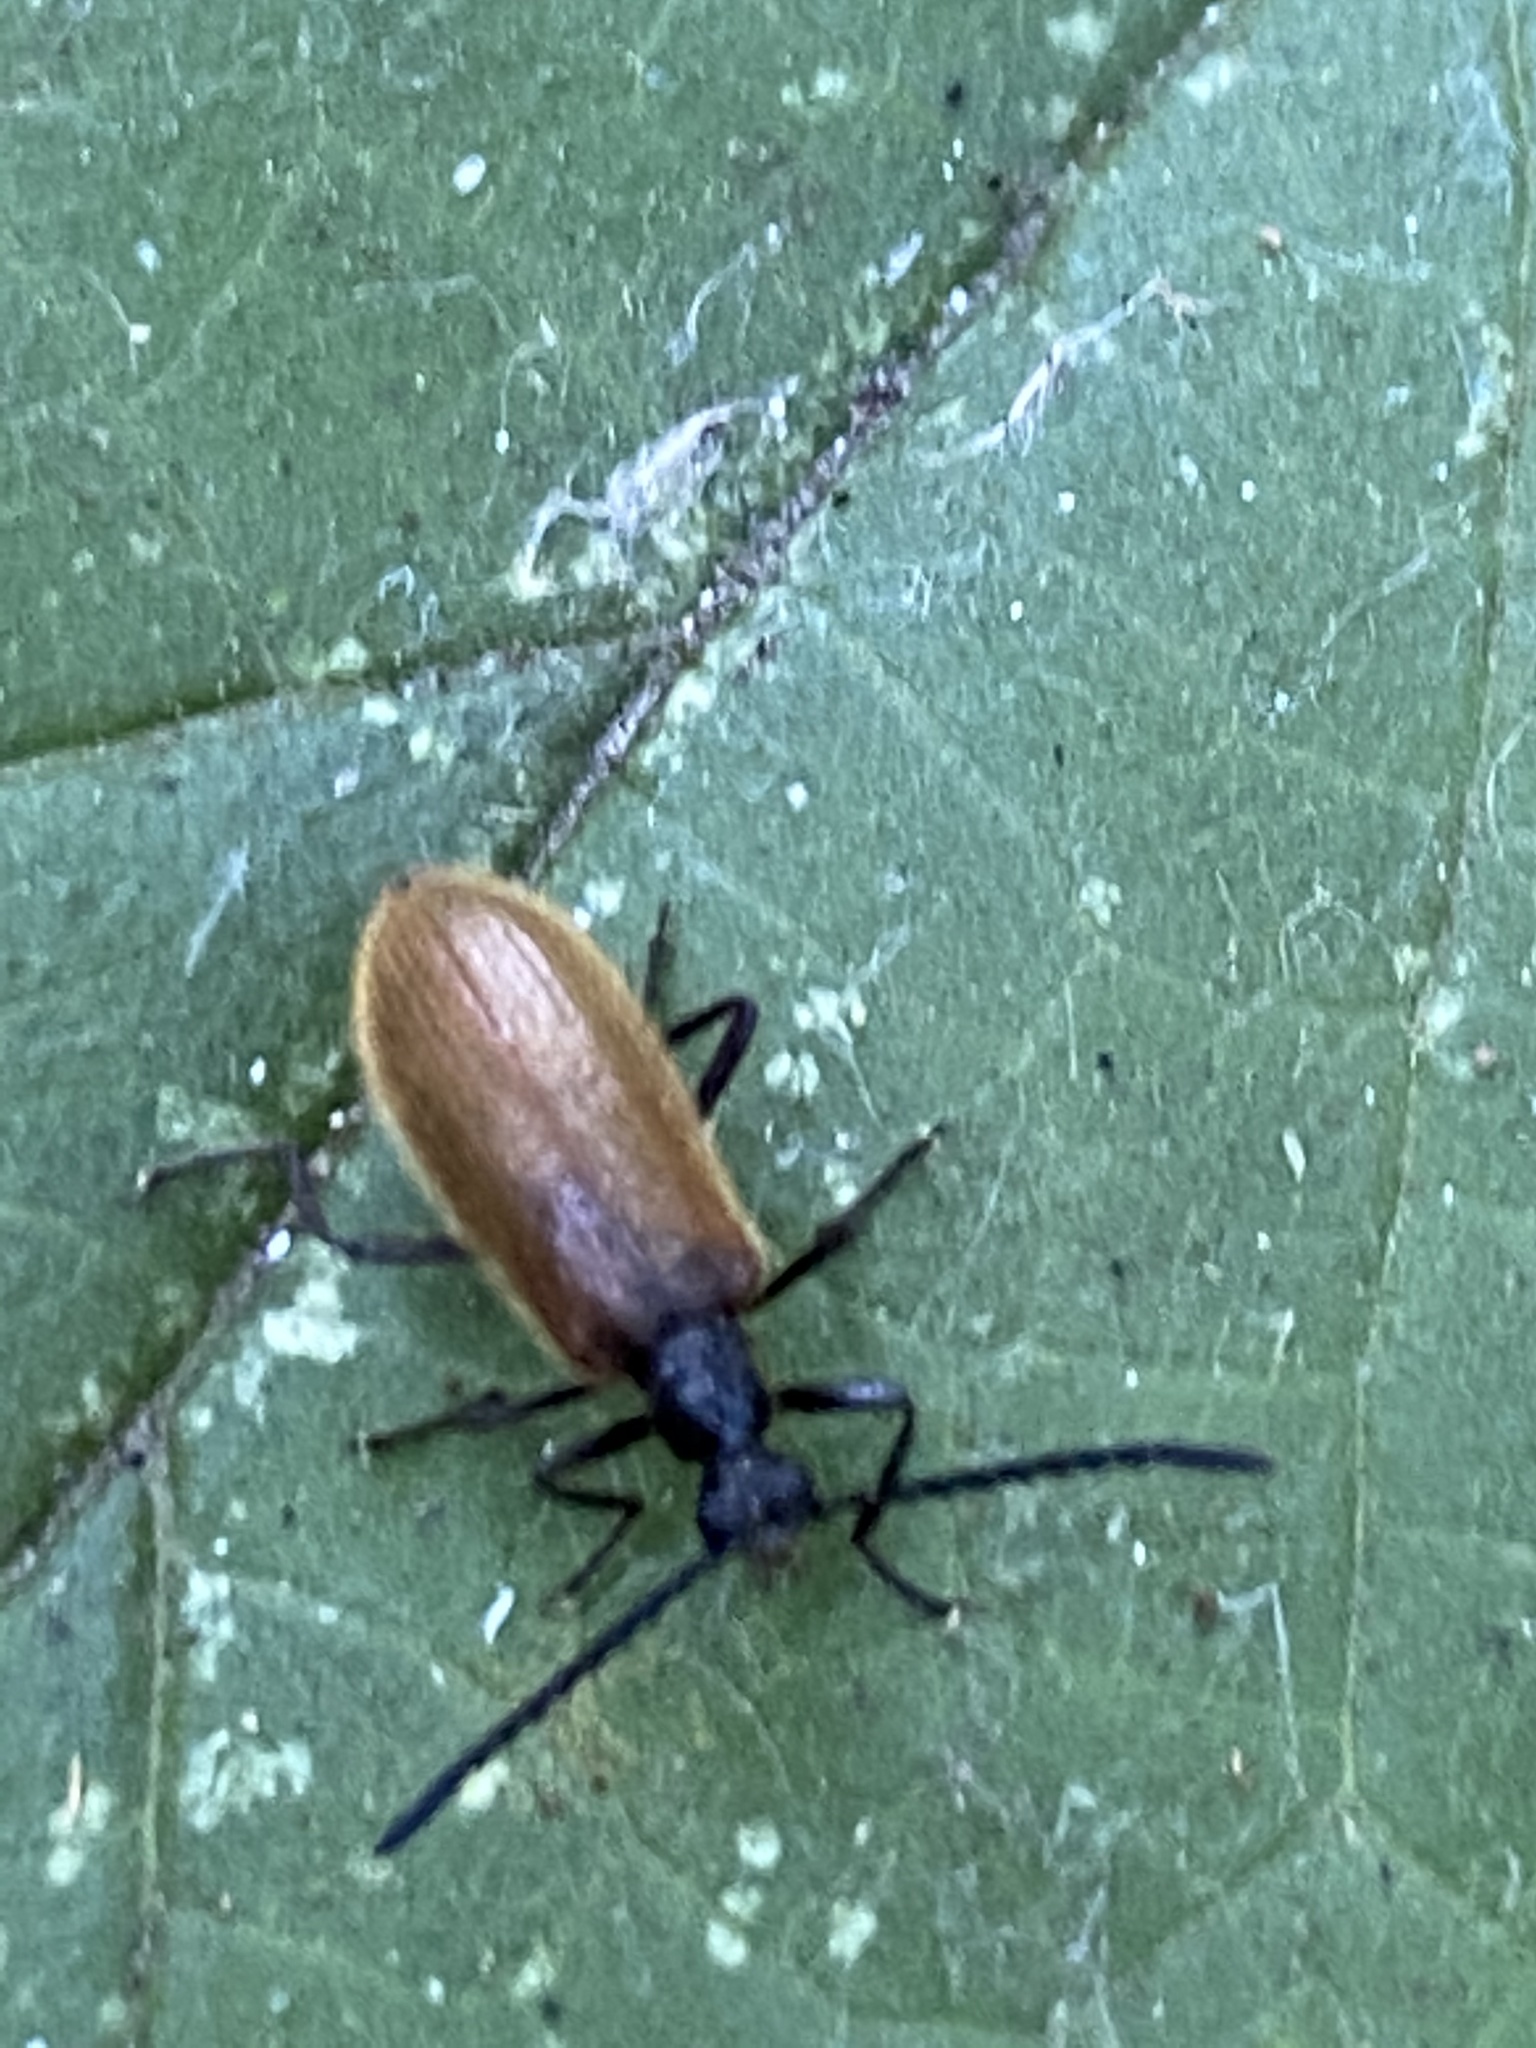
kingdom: Animalia
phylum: Arthropoda
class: Insecta
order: Coleoptera
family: Tenebrionidae
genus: Lagria
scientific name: Lagria hirta
